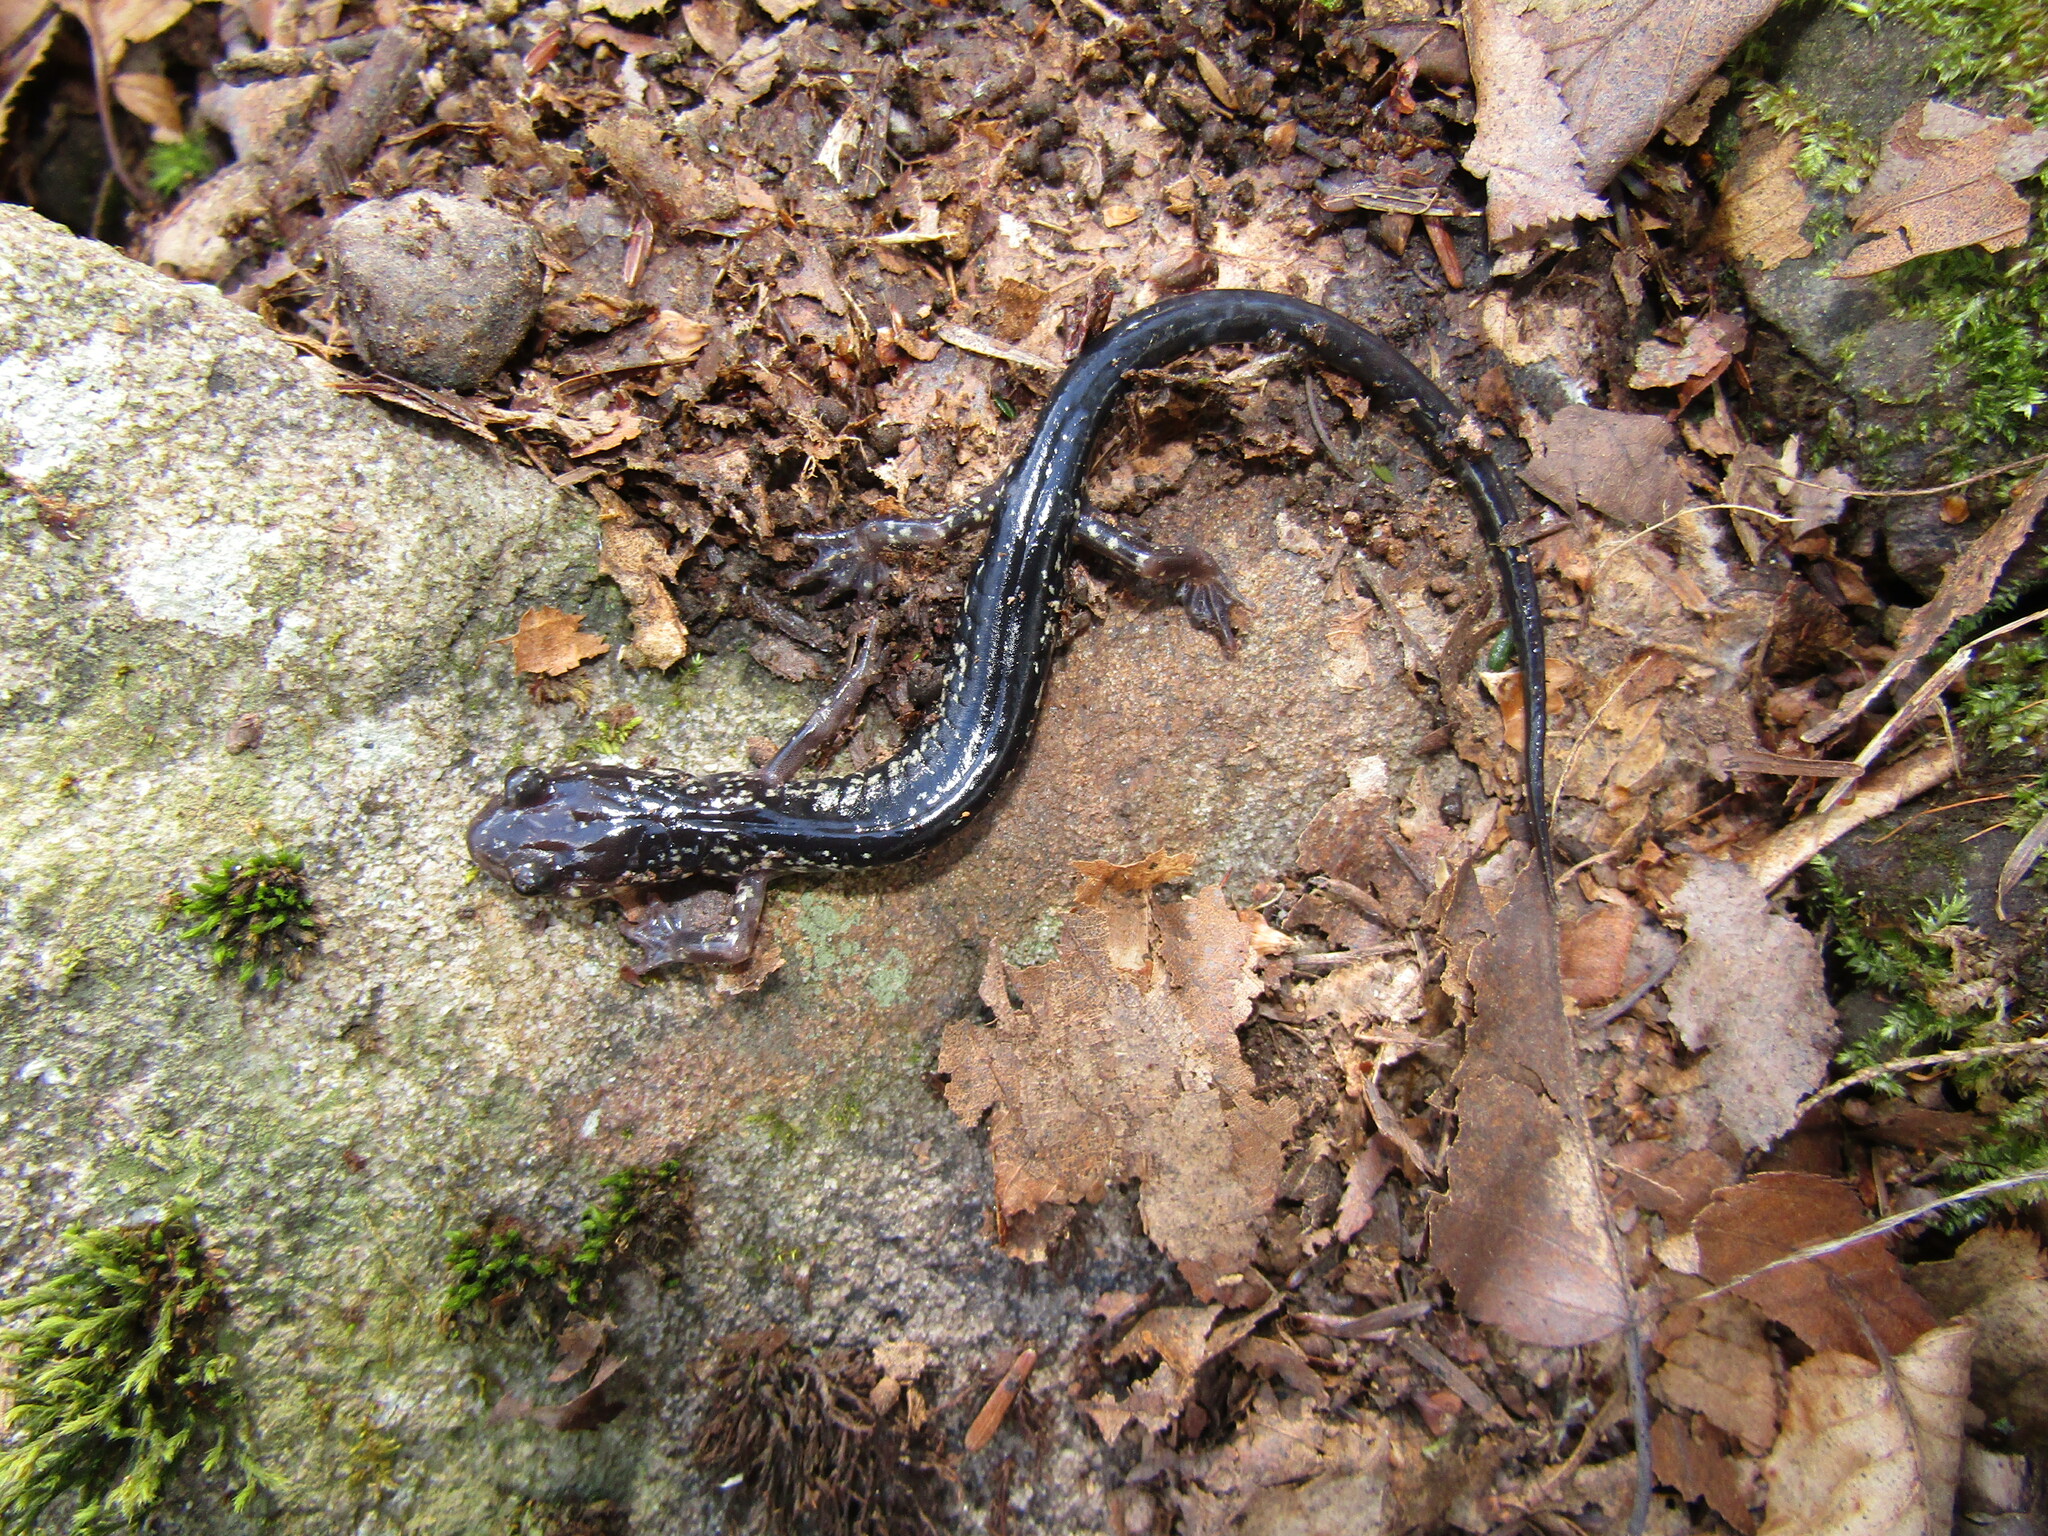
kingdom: Animalia
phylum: Chordata
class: Amphibia
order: Caudata
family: Plethodontidae
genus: Plethodon
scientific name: Plethodon punctatus
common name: White-spotted salamander
